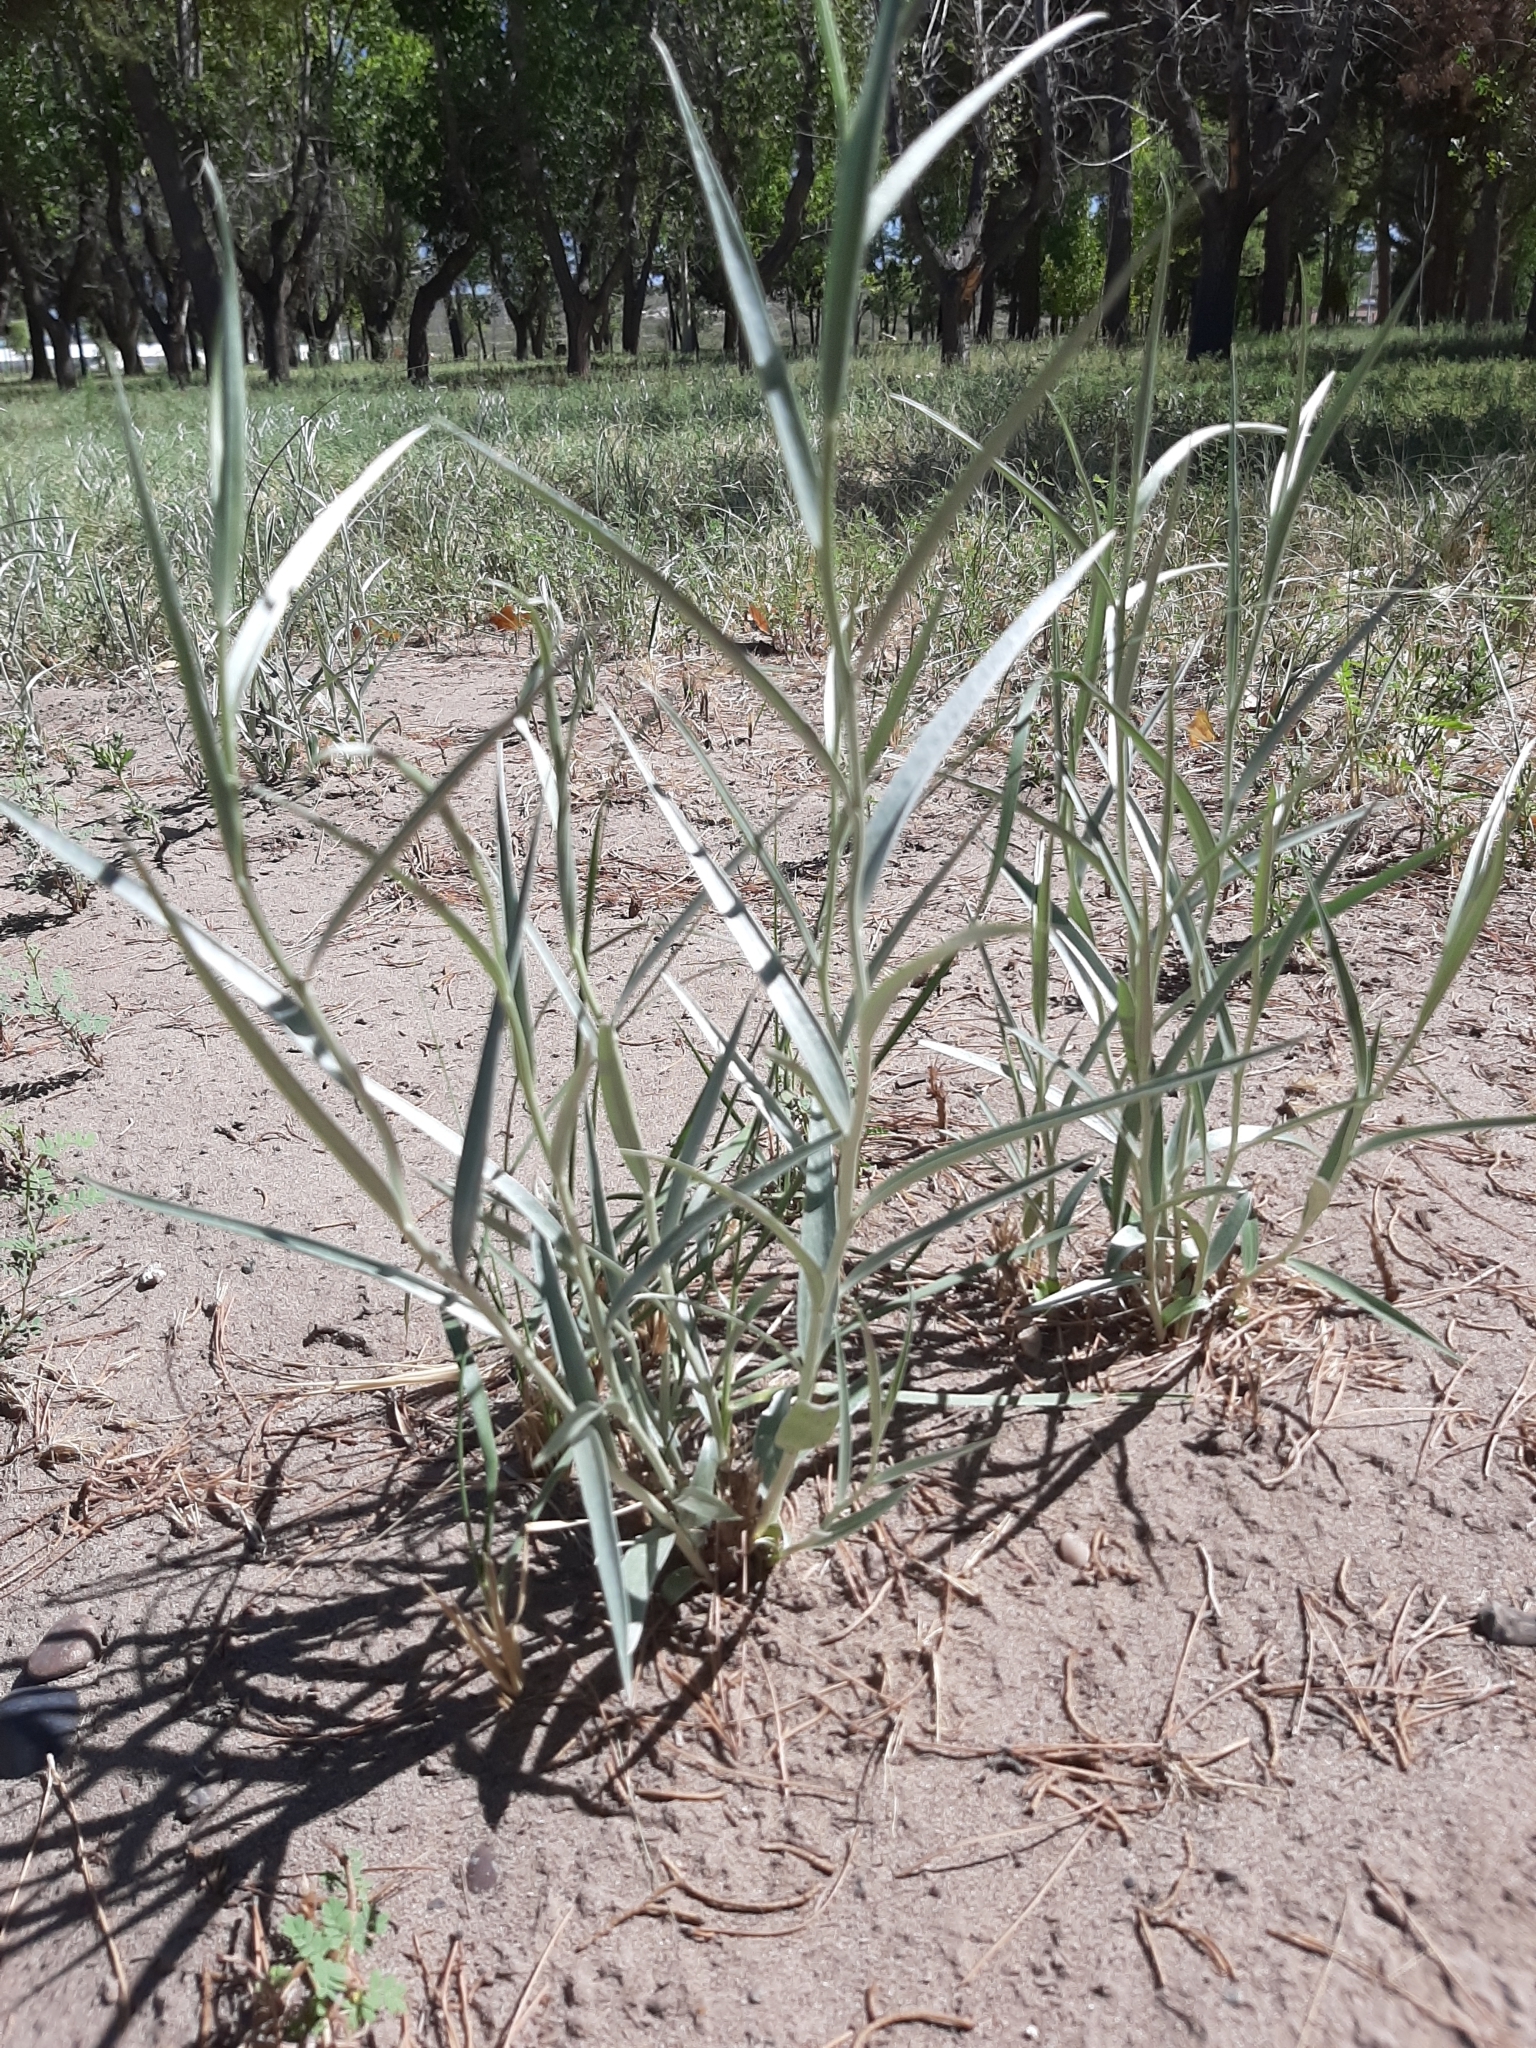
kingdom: Plantae
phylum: Tracheophyta
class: Magnoliopsida
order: Asterales
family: Asteraceae
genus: Hyalis
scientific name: Hyalis argentea
